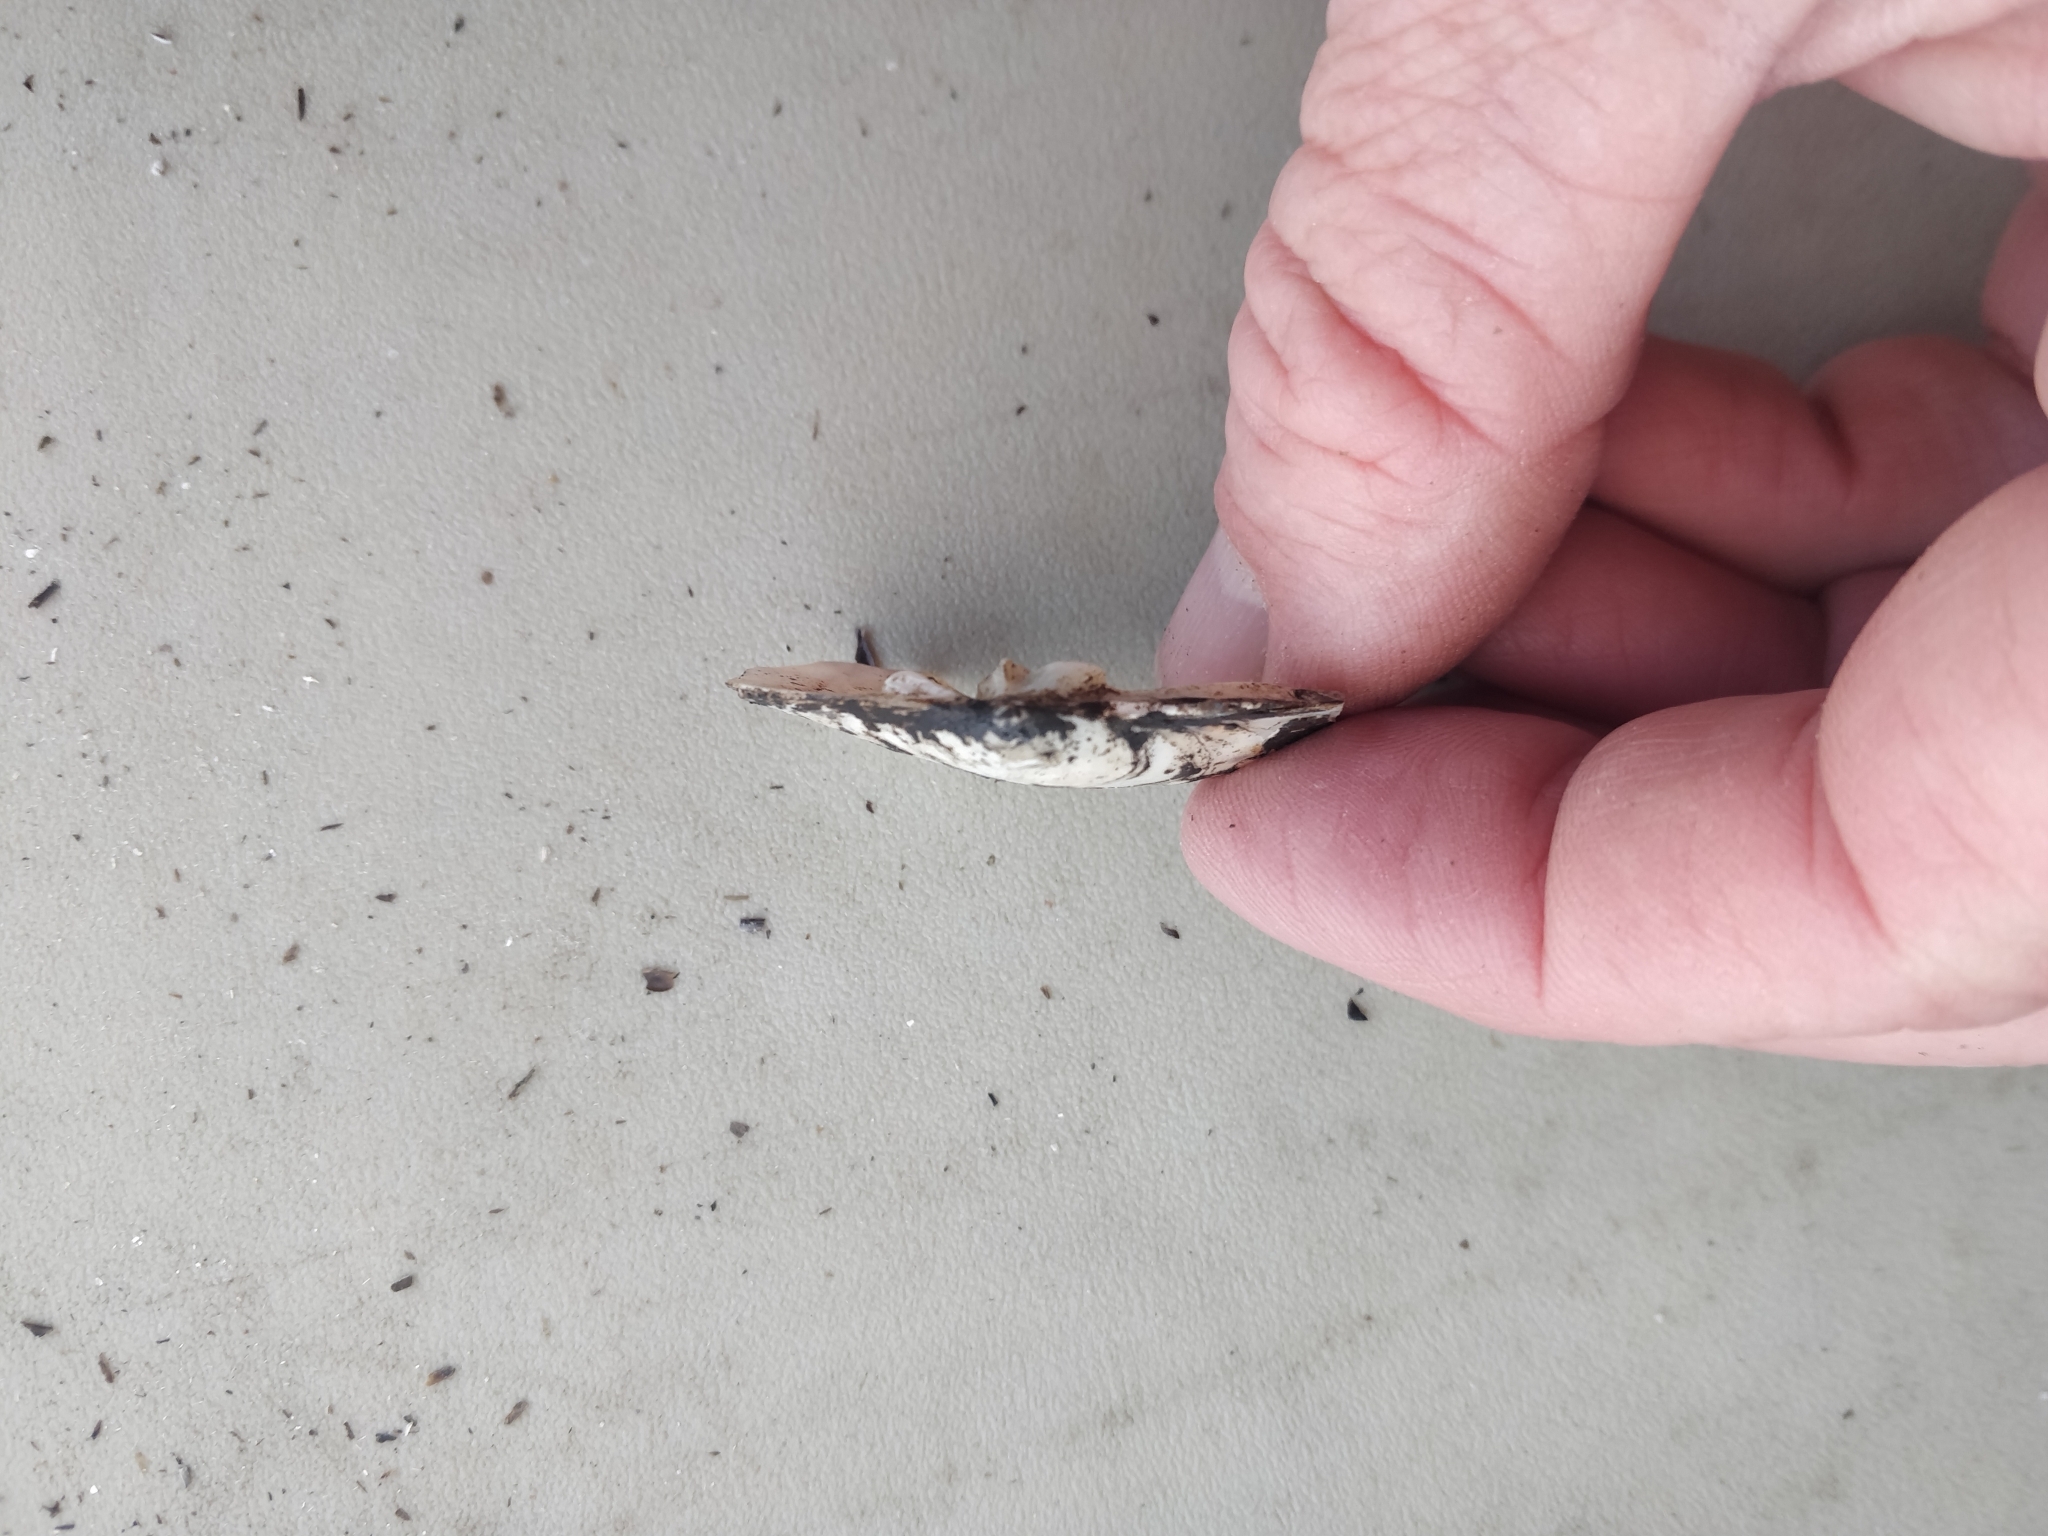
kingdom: Animalia
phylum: Mollusca
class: Bivalvia
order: Unionida
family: Unionidae
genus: Lasmigona
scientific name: Lasmigona complanata
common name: White heelsplitter
